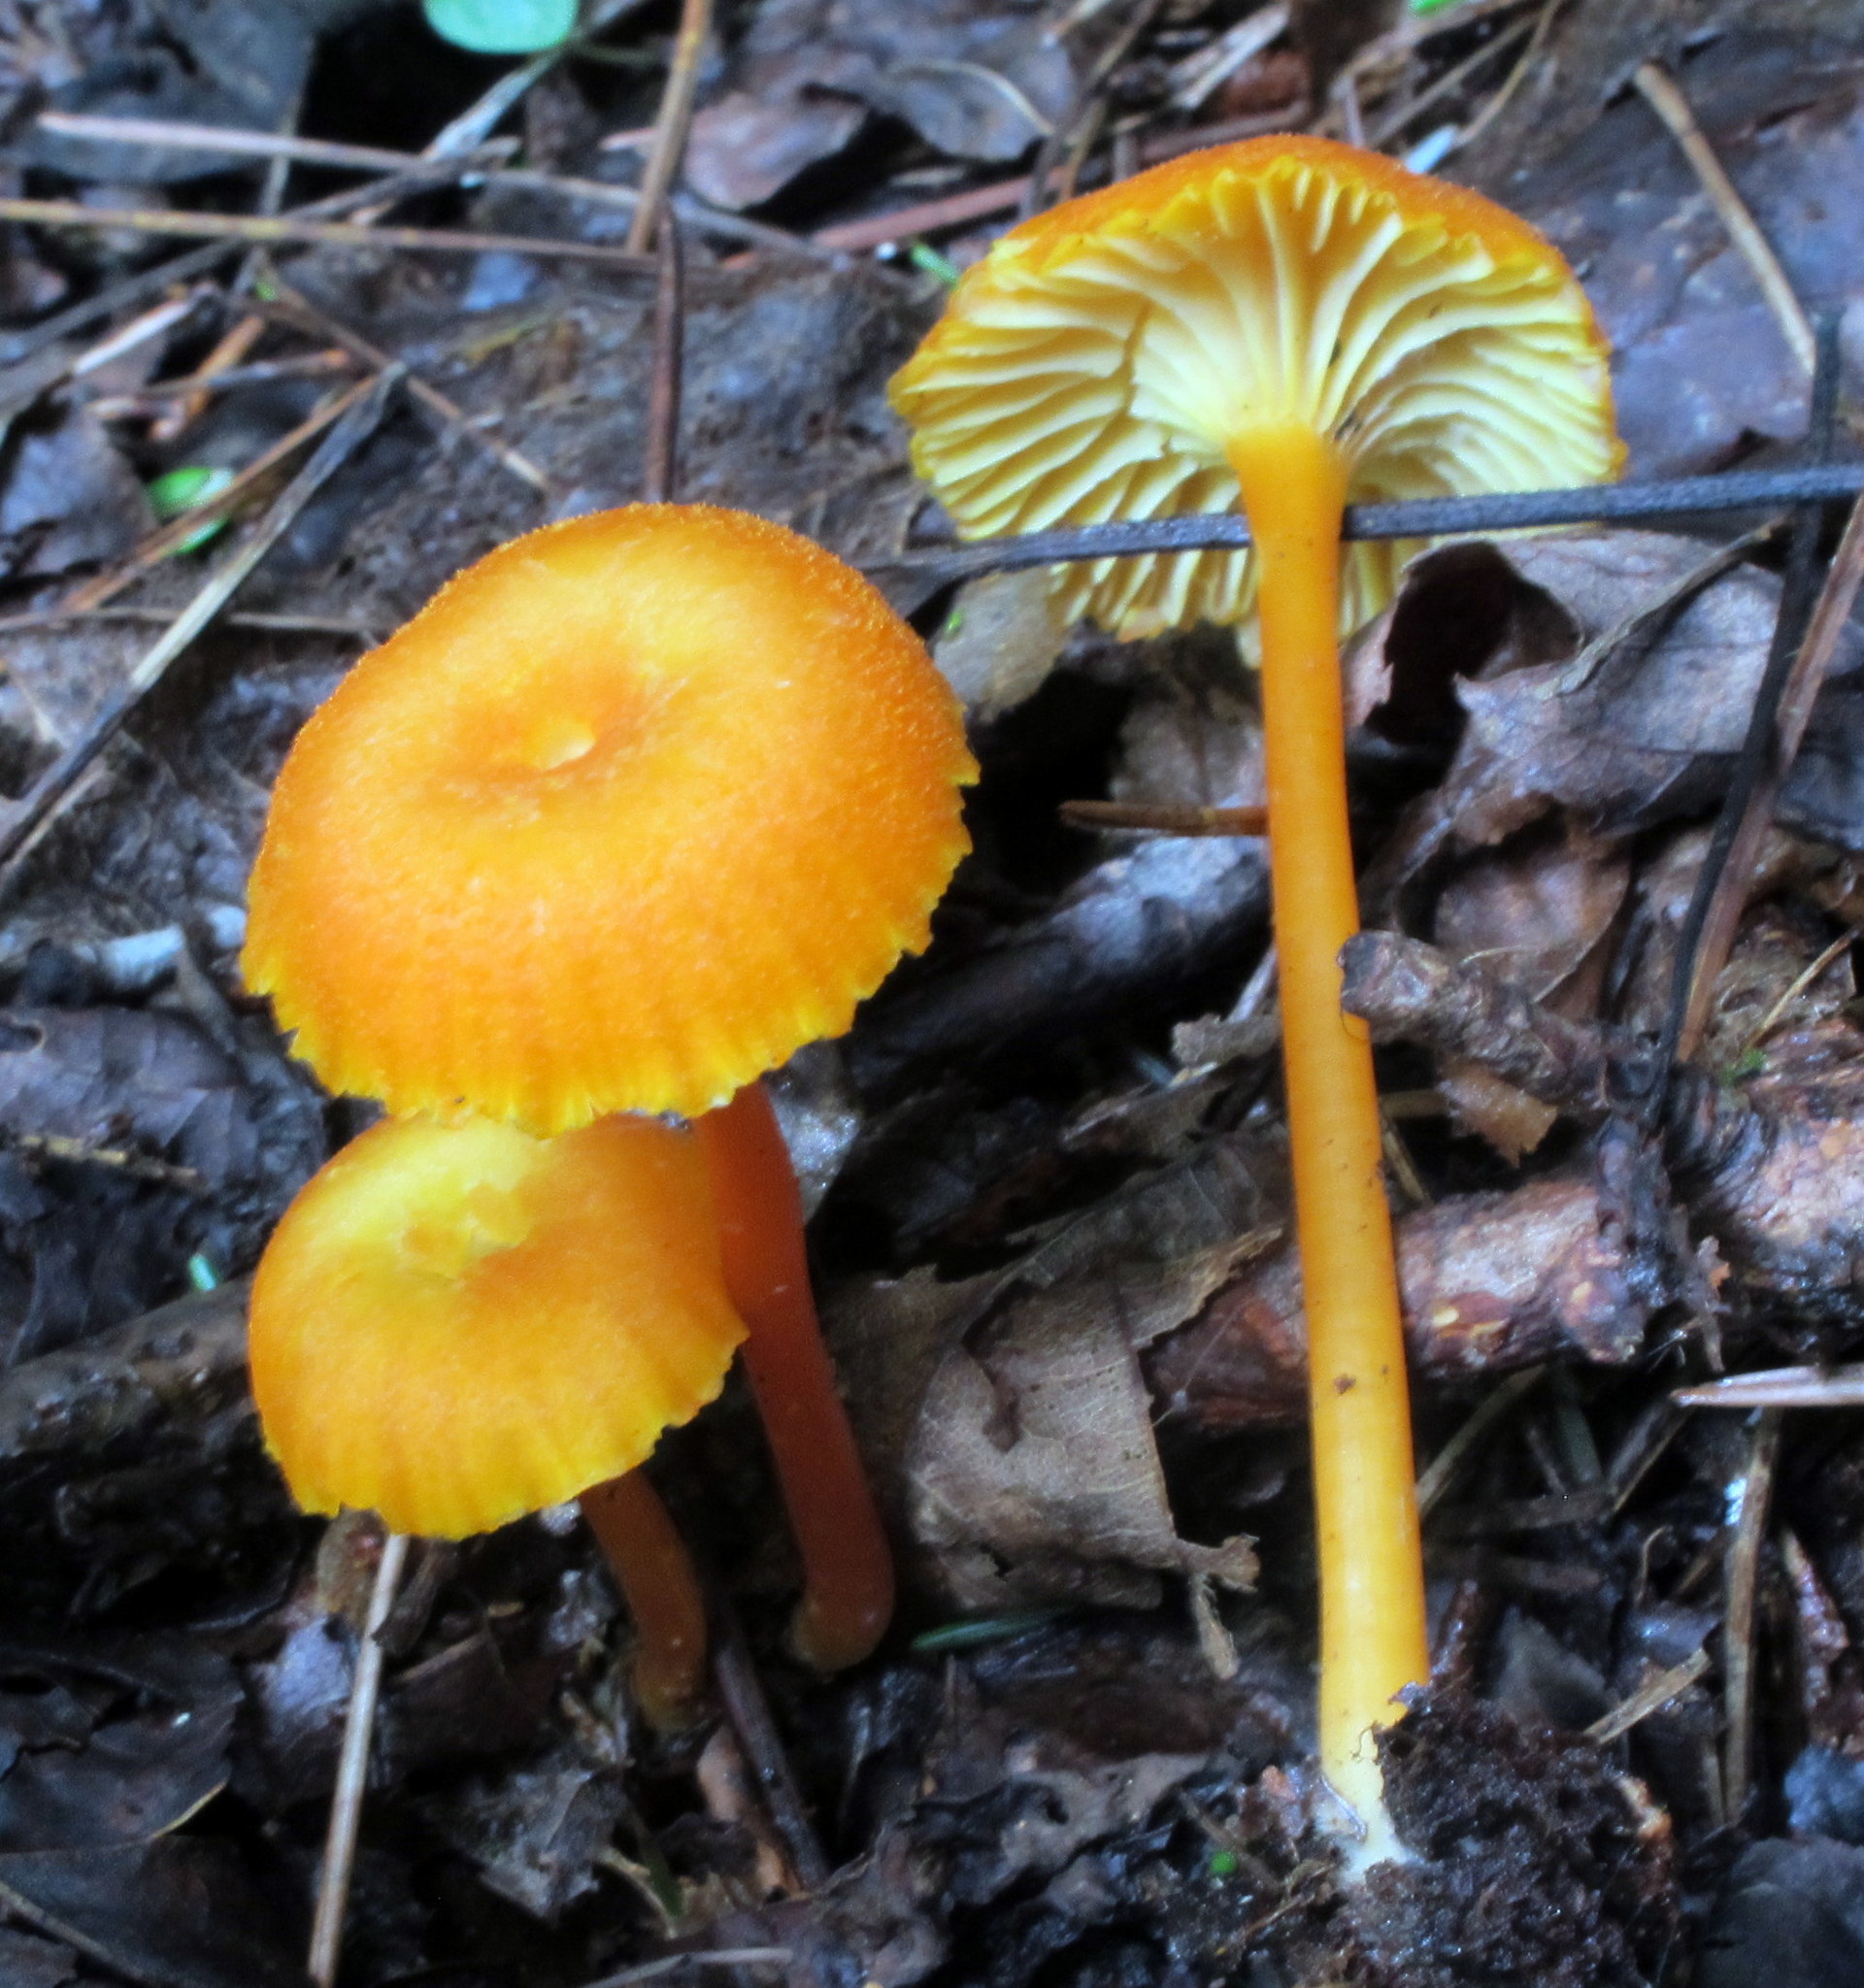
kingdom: Fungi
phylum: Basidiomycota
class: Agaricomycetes
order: Agaricales
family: Hygrophoraceae
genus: Hygrocybe
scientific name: Hygrocybe cantharellus
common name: Goblet waxcap
